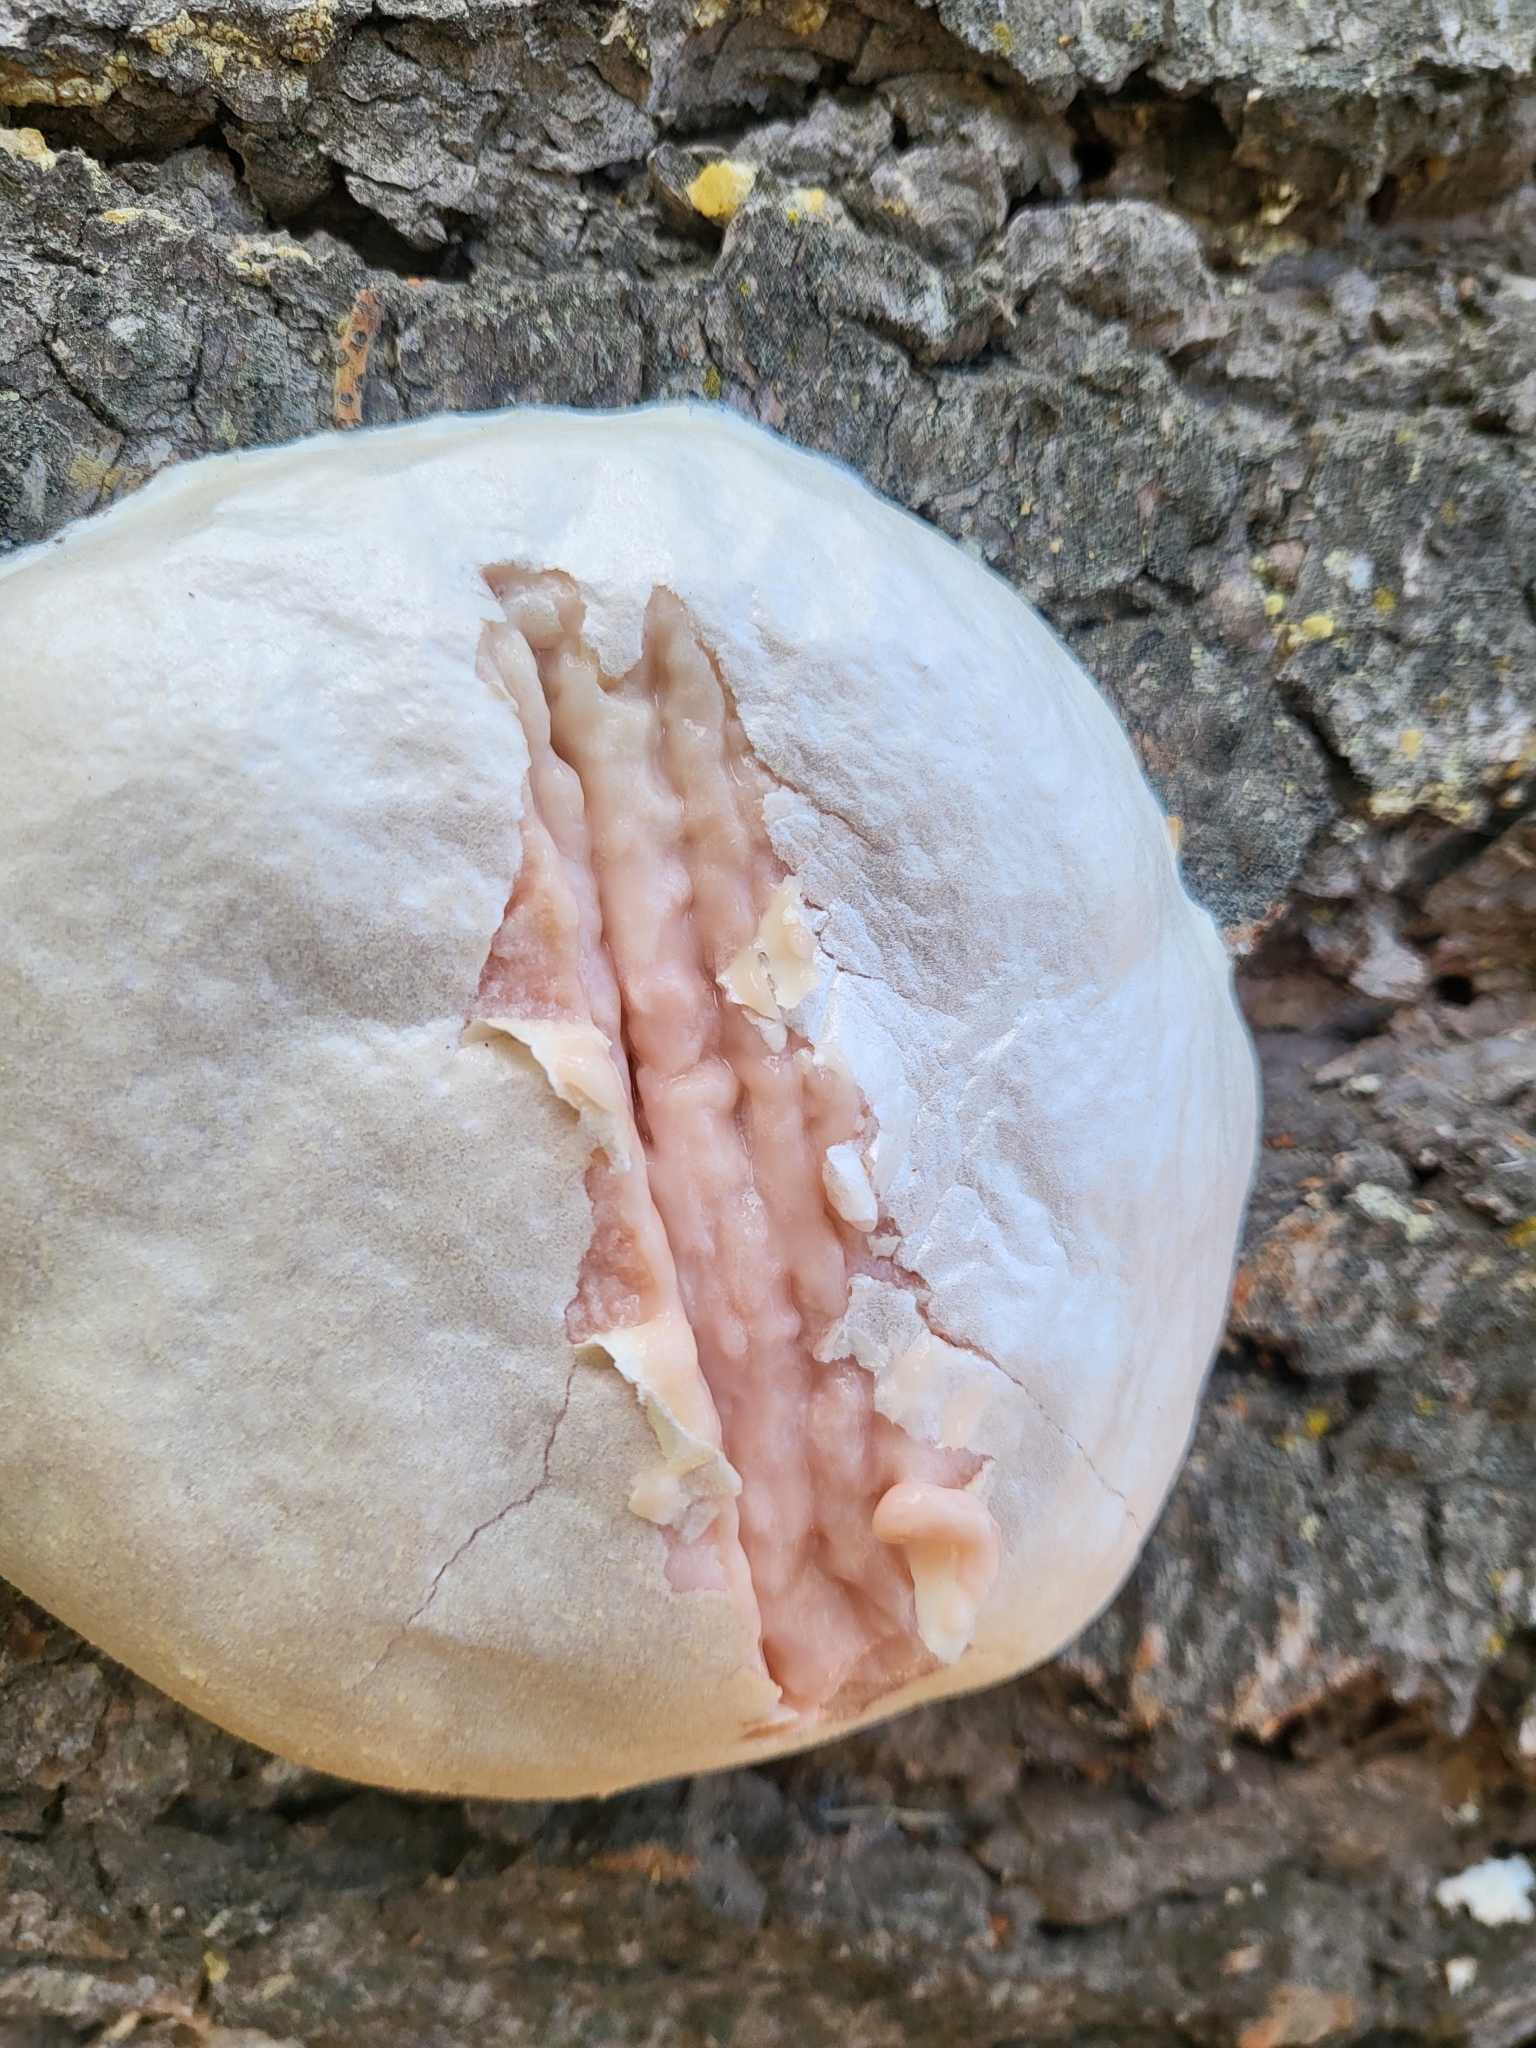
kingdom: Protozoa
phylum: Mycetozoa
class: Myxomycetes
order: Cribrariales
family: Tubiferaceae
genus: Reticularia
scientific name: Reticularia lycoperdon
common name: False puffball
